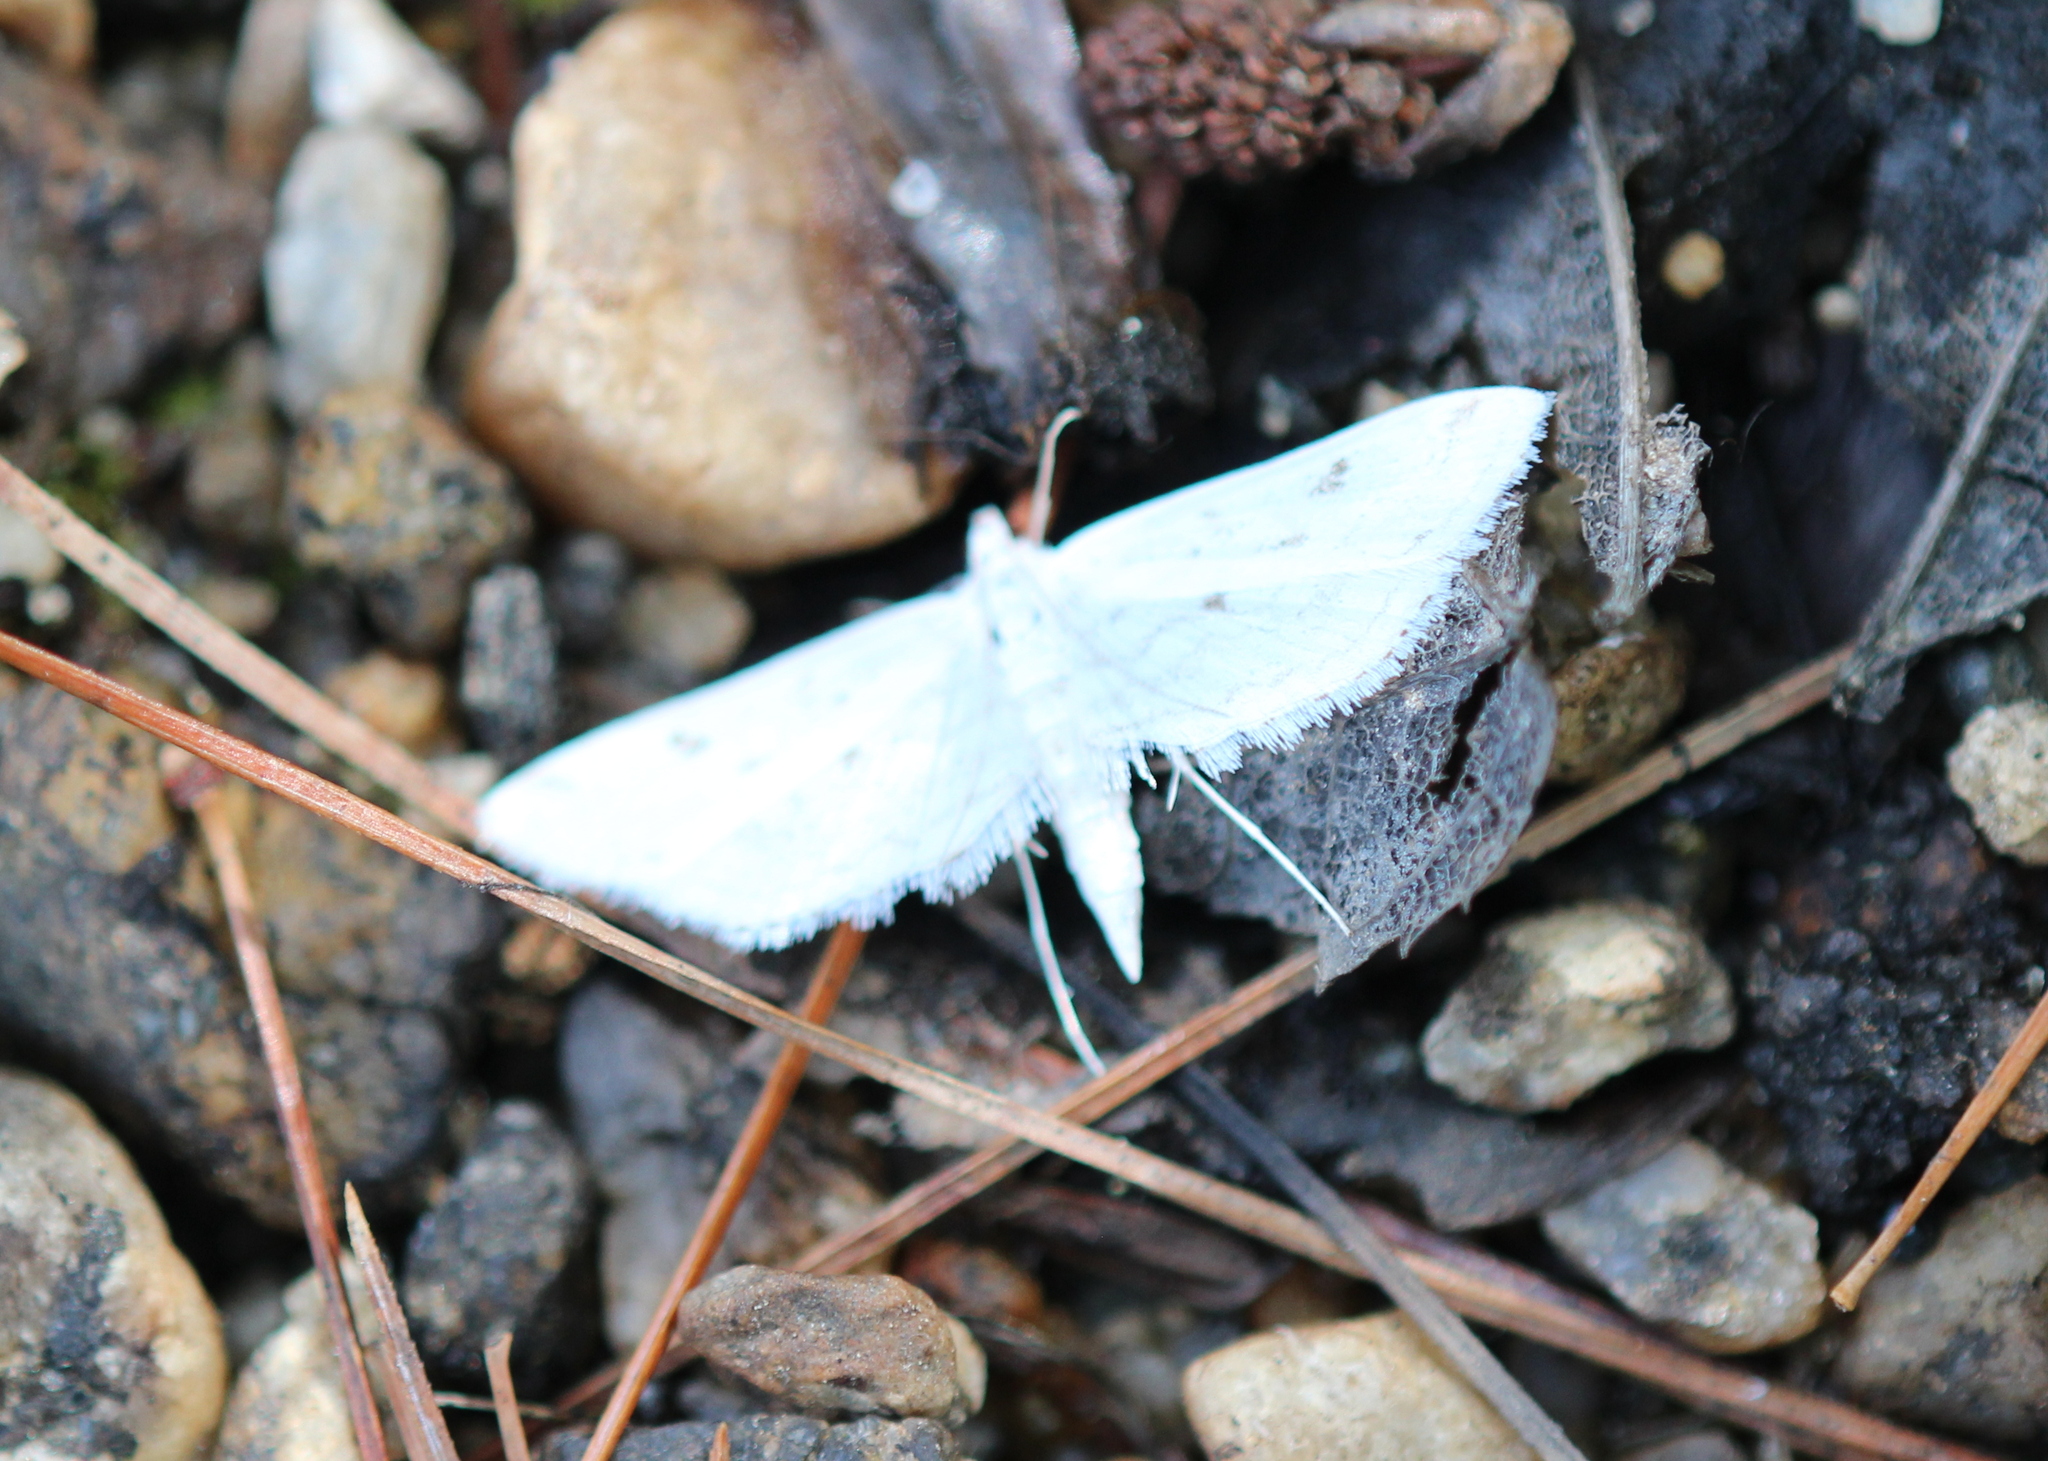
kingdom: Animalia
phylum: Arthropoda
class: Insecta
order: Lepidoptera
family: Crambidae
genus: Parapoynx
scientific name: Parapoynx allionealis
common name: Bladderwort casemaker
